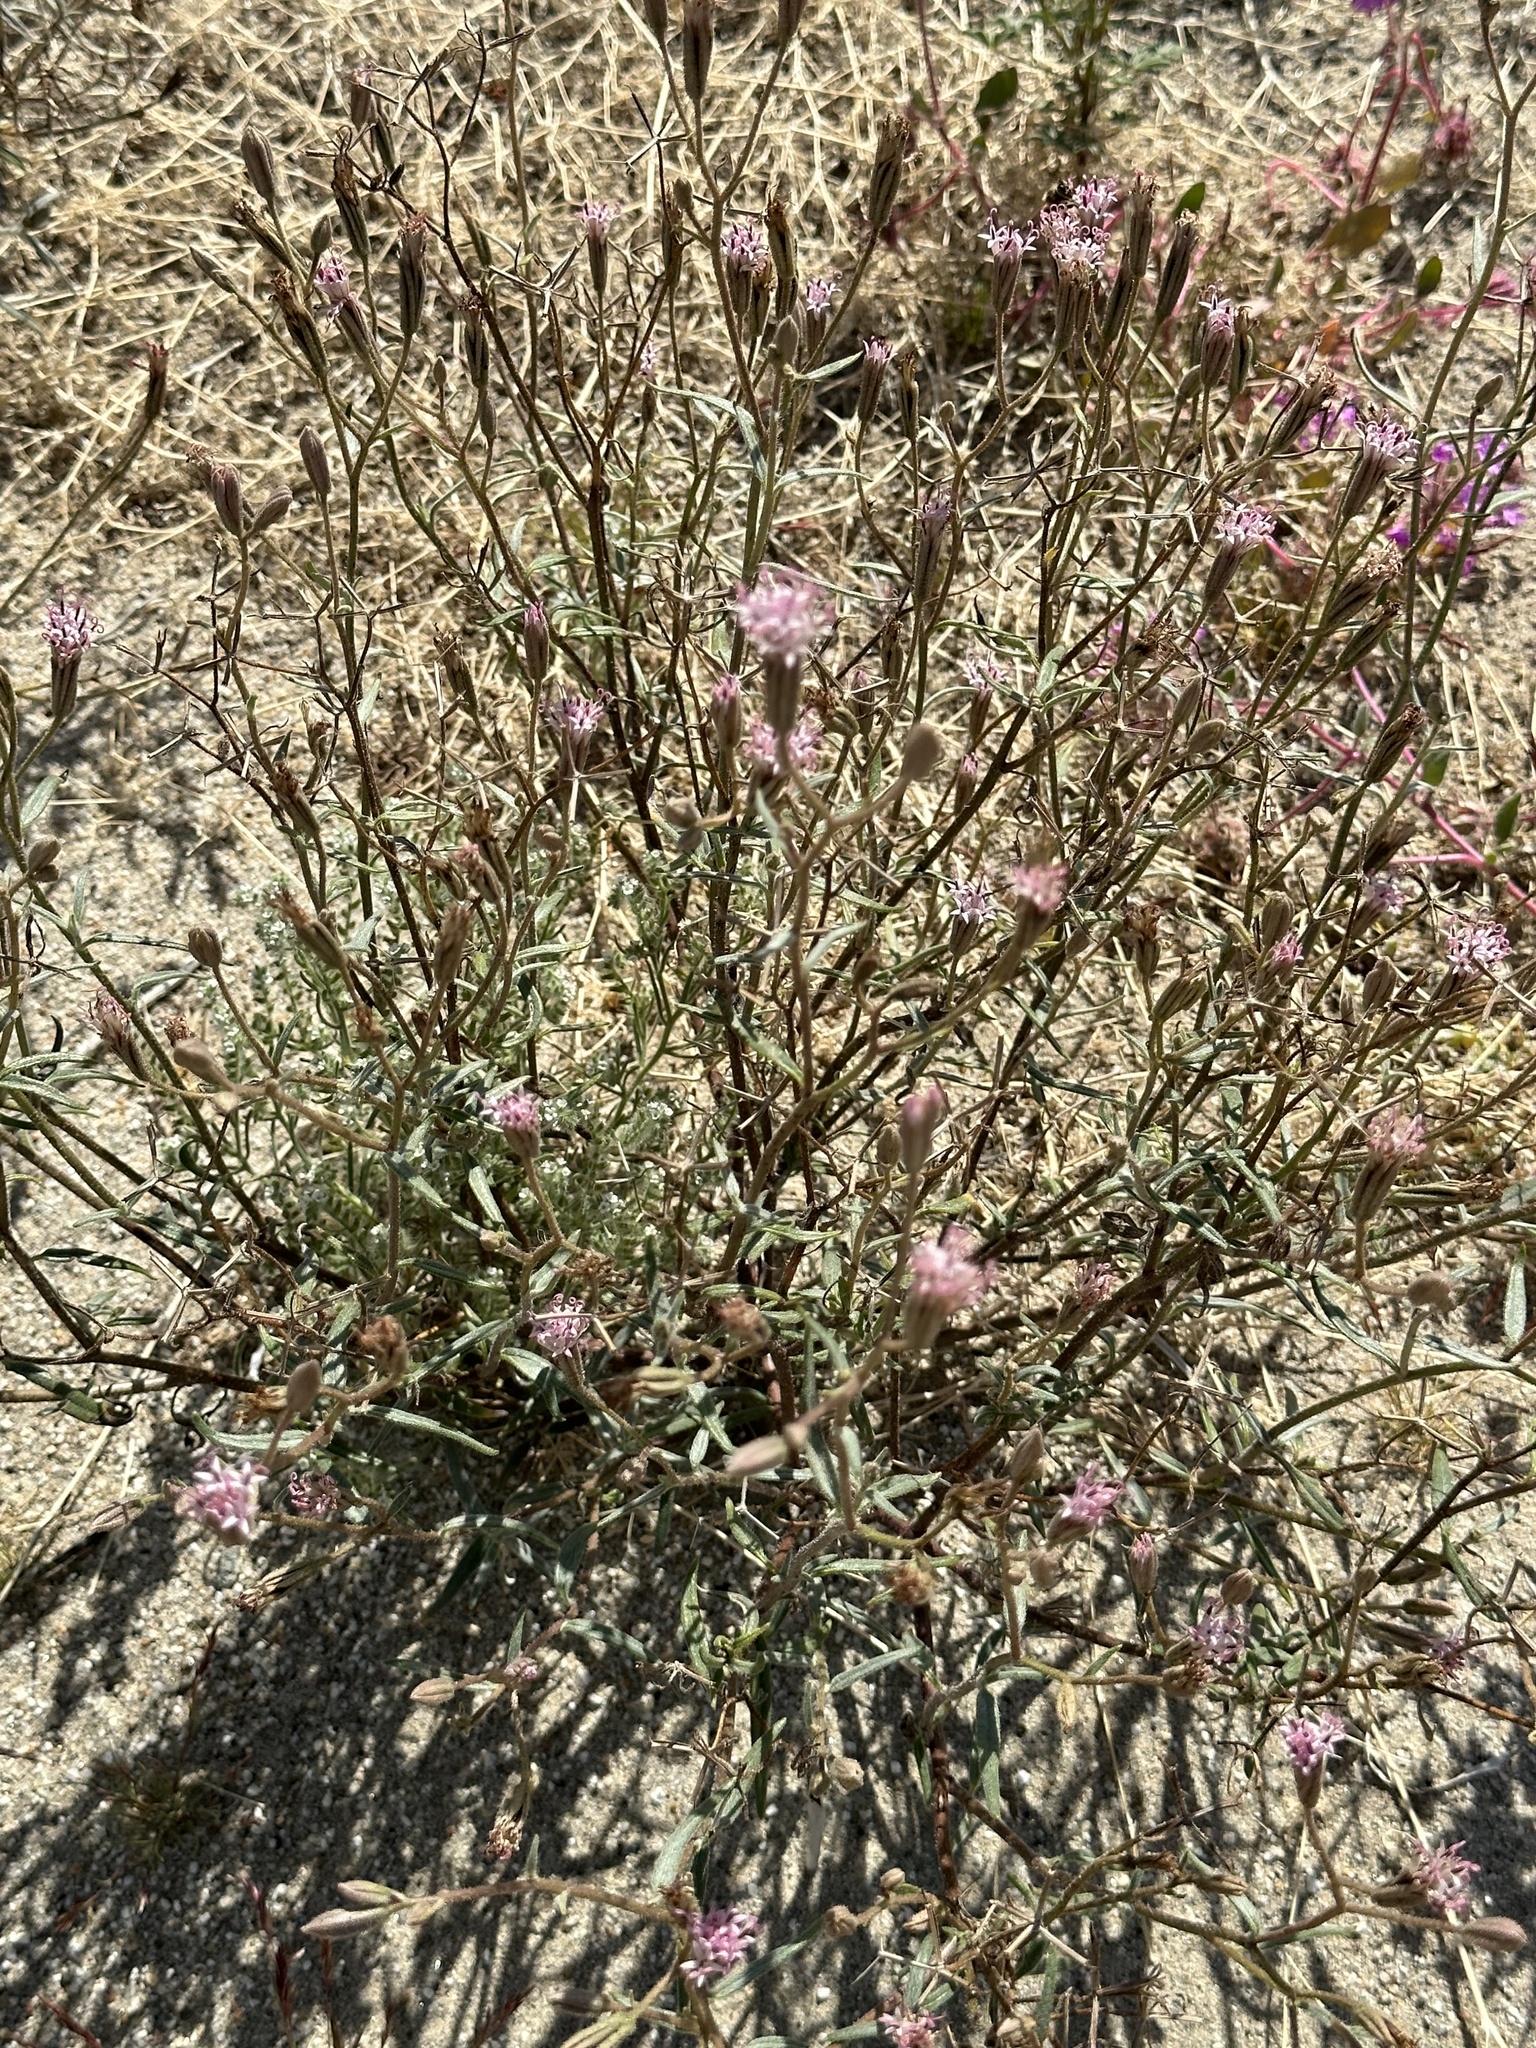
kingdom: Plantae
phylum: Tracheophyta
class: Magnoliopsida
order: Asterales
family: Asteraceae
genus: Palafoxia
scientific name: Palafoxia arida
